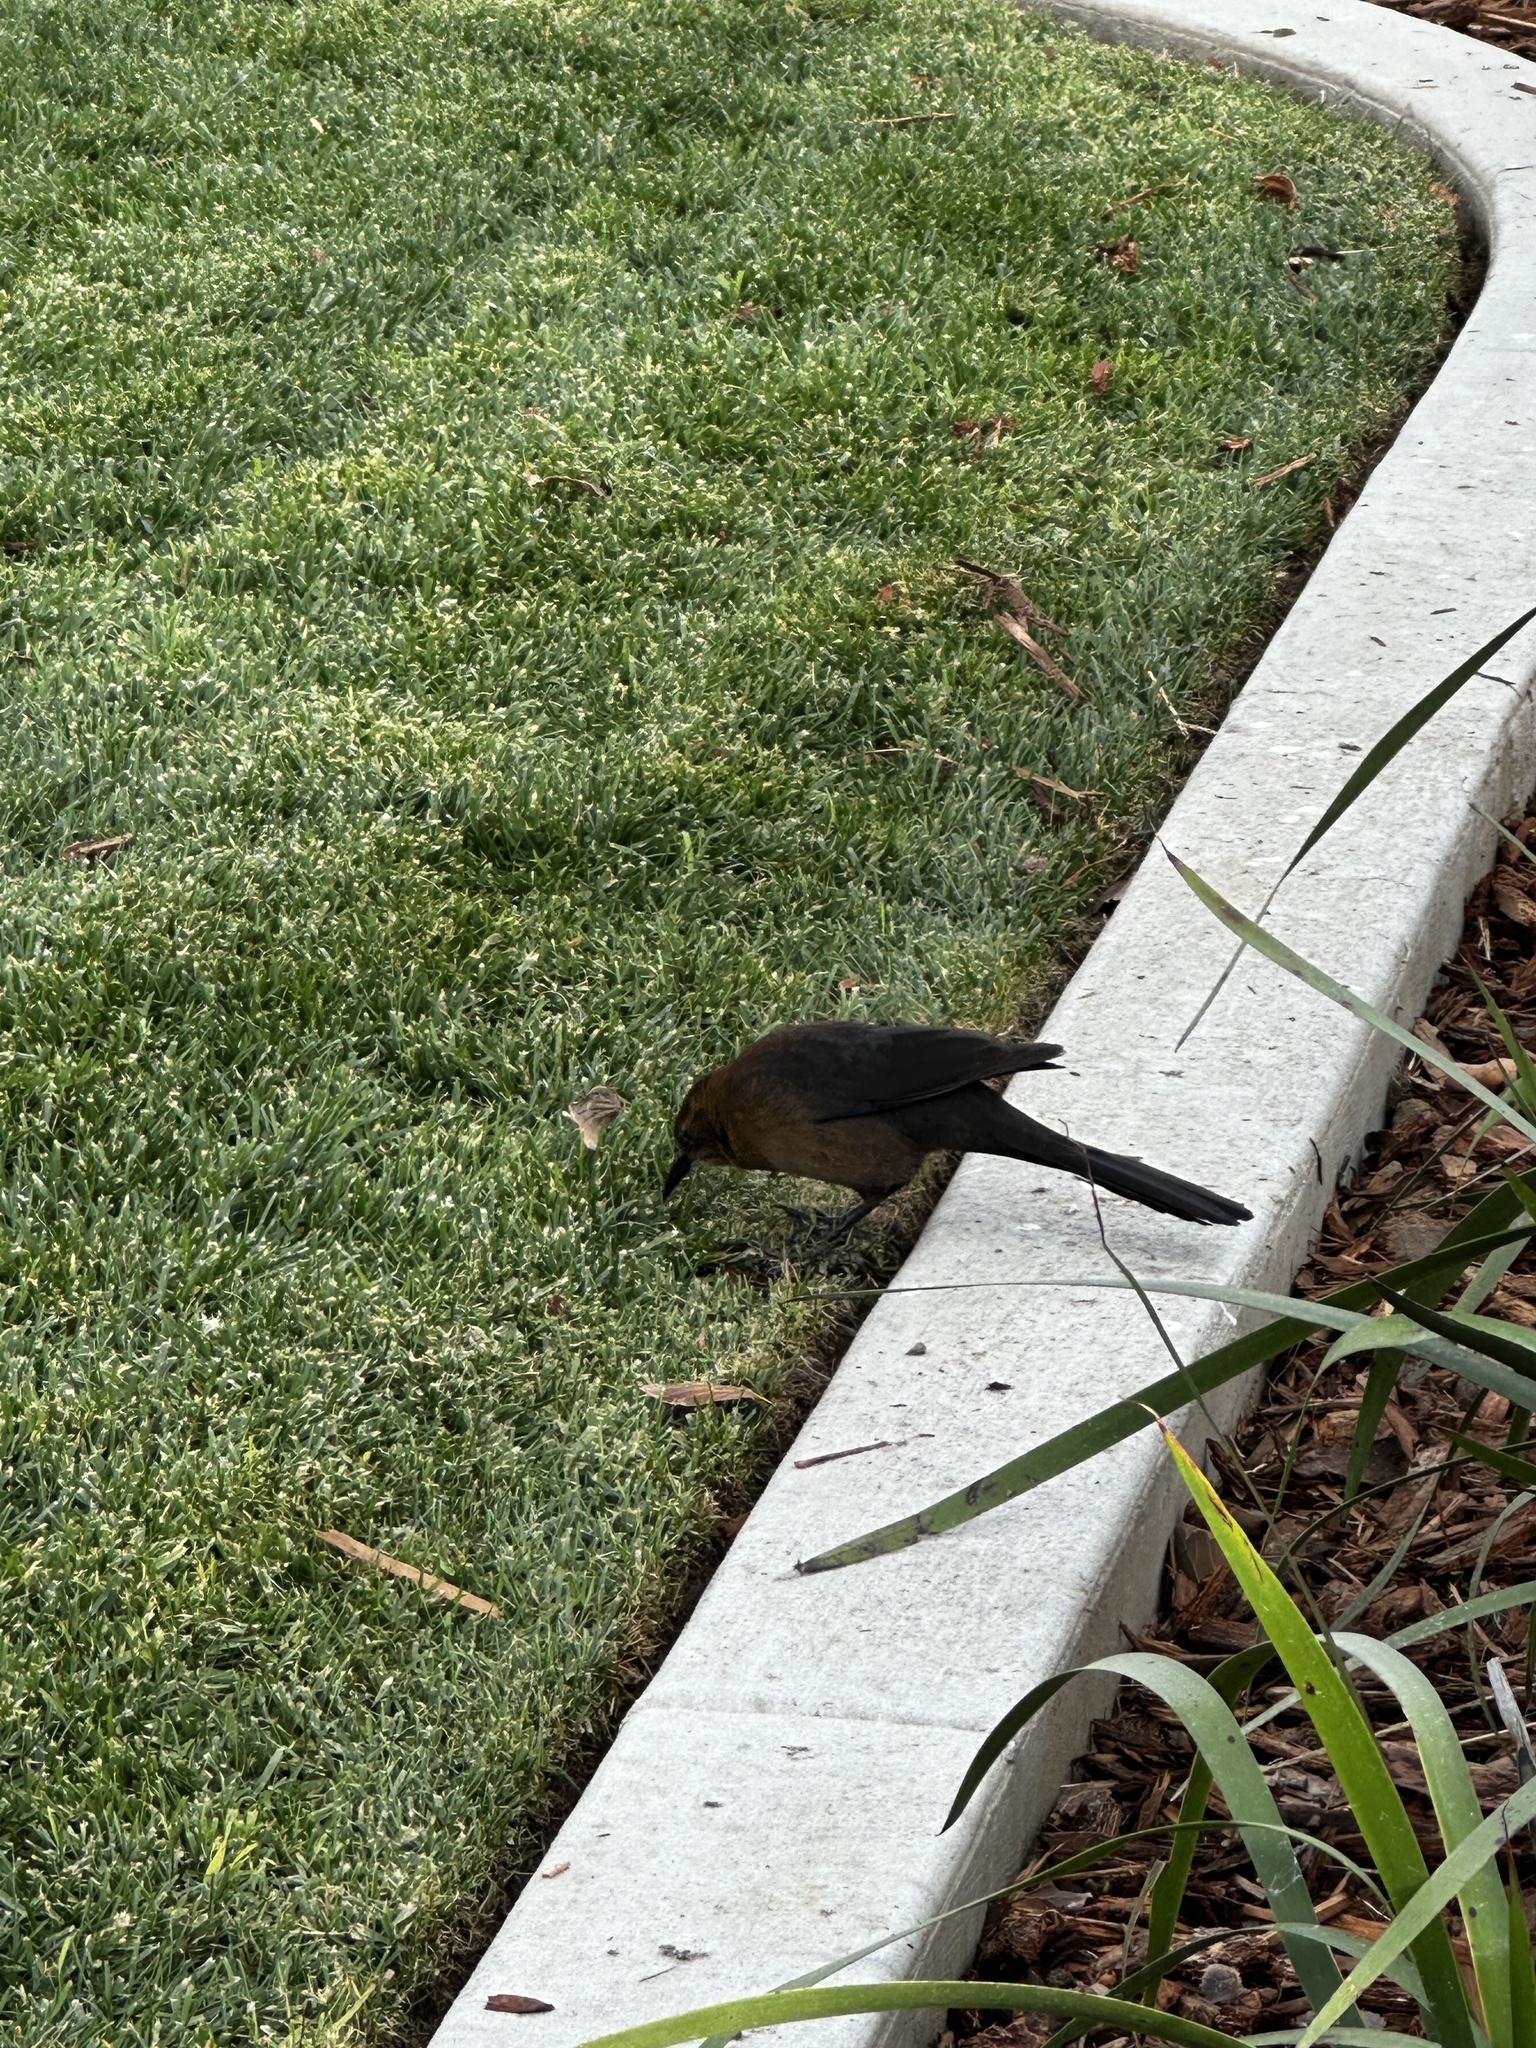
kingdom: Animalia
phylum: Chordata
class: Aves
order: Passeriformes
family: Icteridae
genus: Quiscalus
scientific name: Quiscalus mexicanus
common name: Great-tailed grackle
